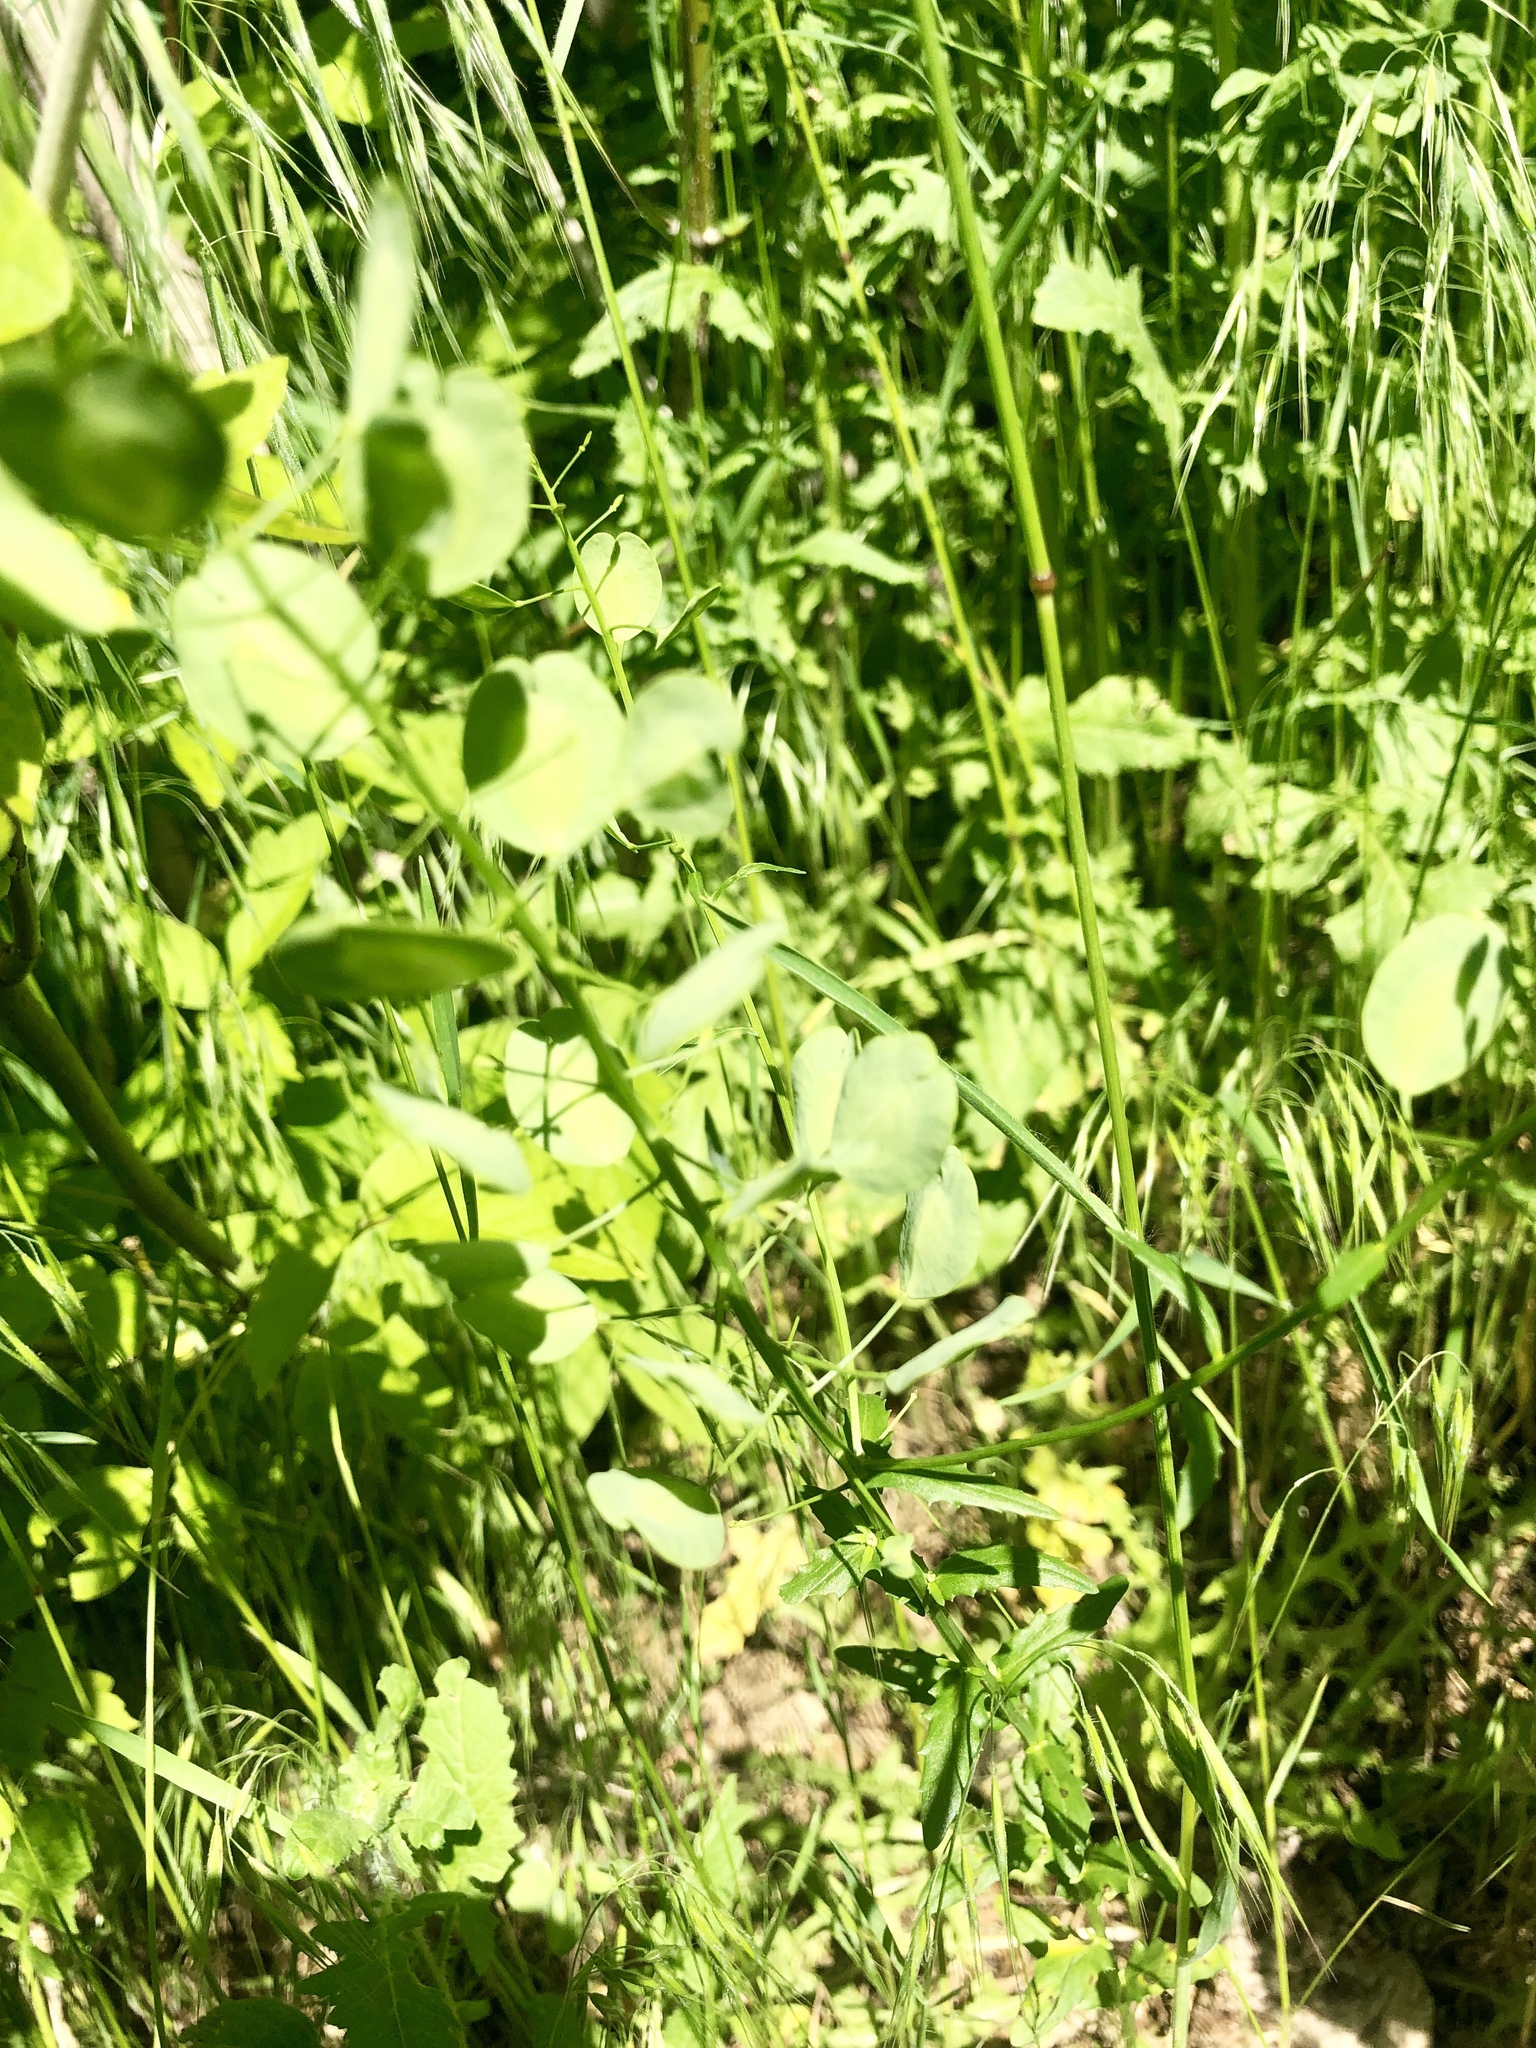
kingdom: Plantae
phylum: Tracheophyta
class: Magnoliopsida
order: Brassicales
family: Brassicaceae
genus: Thlaspi
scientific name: Thlaspi arvense
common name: Field pennycress
